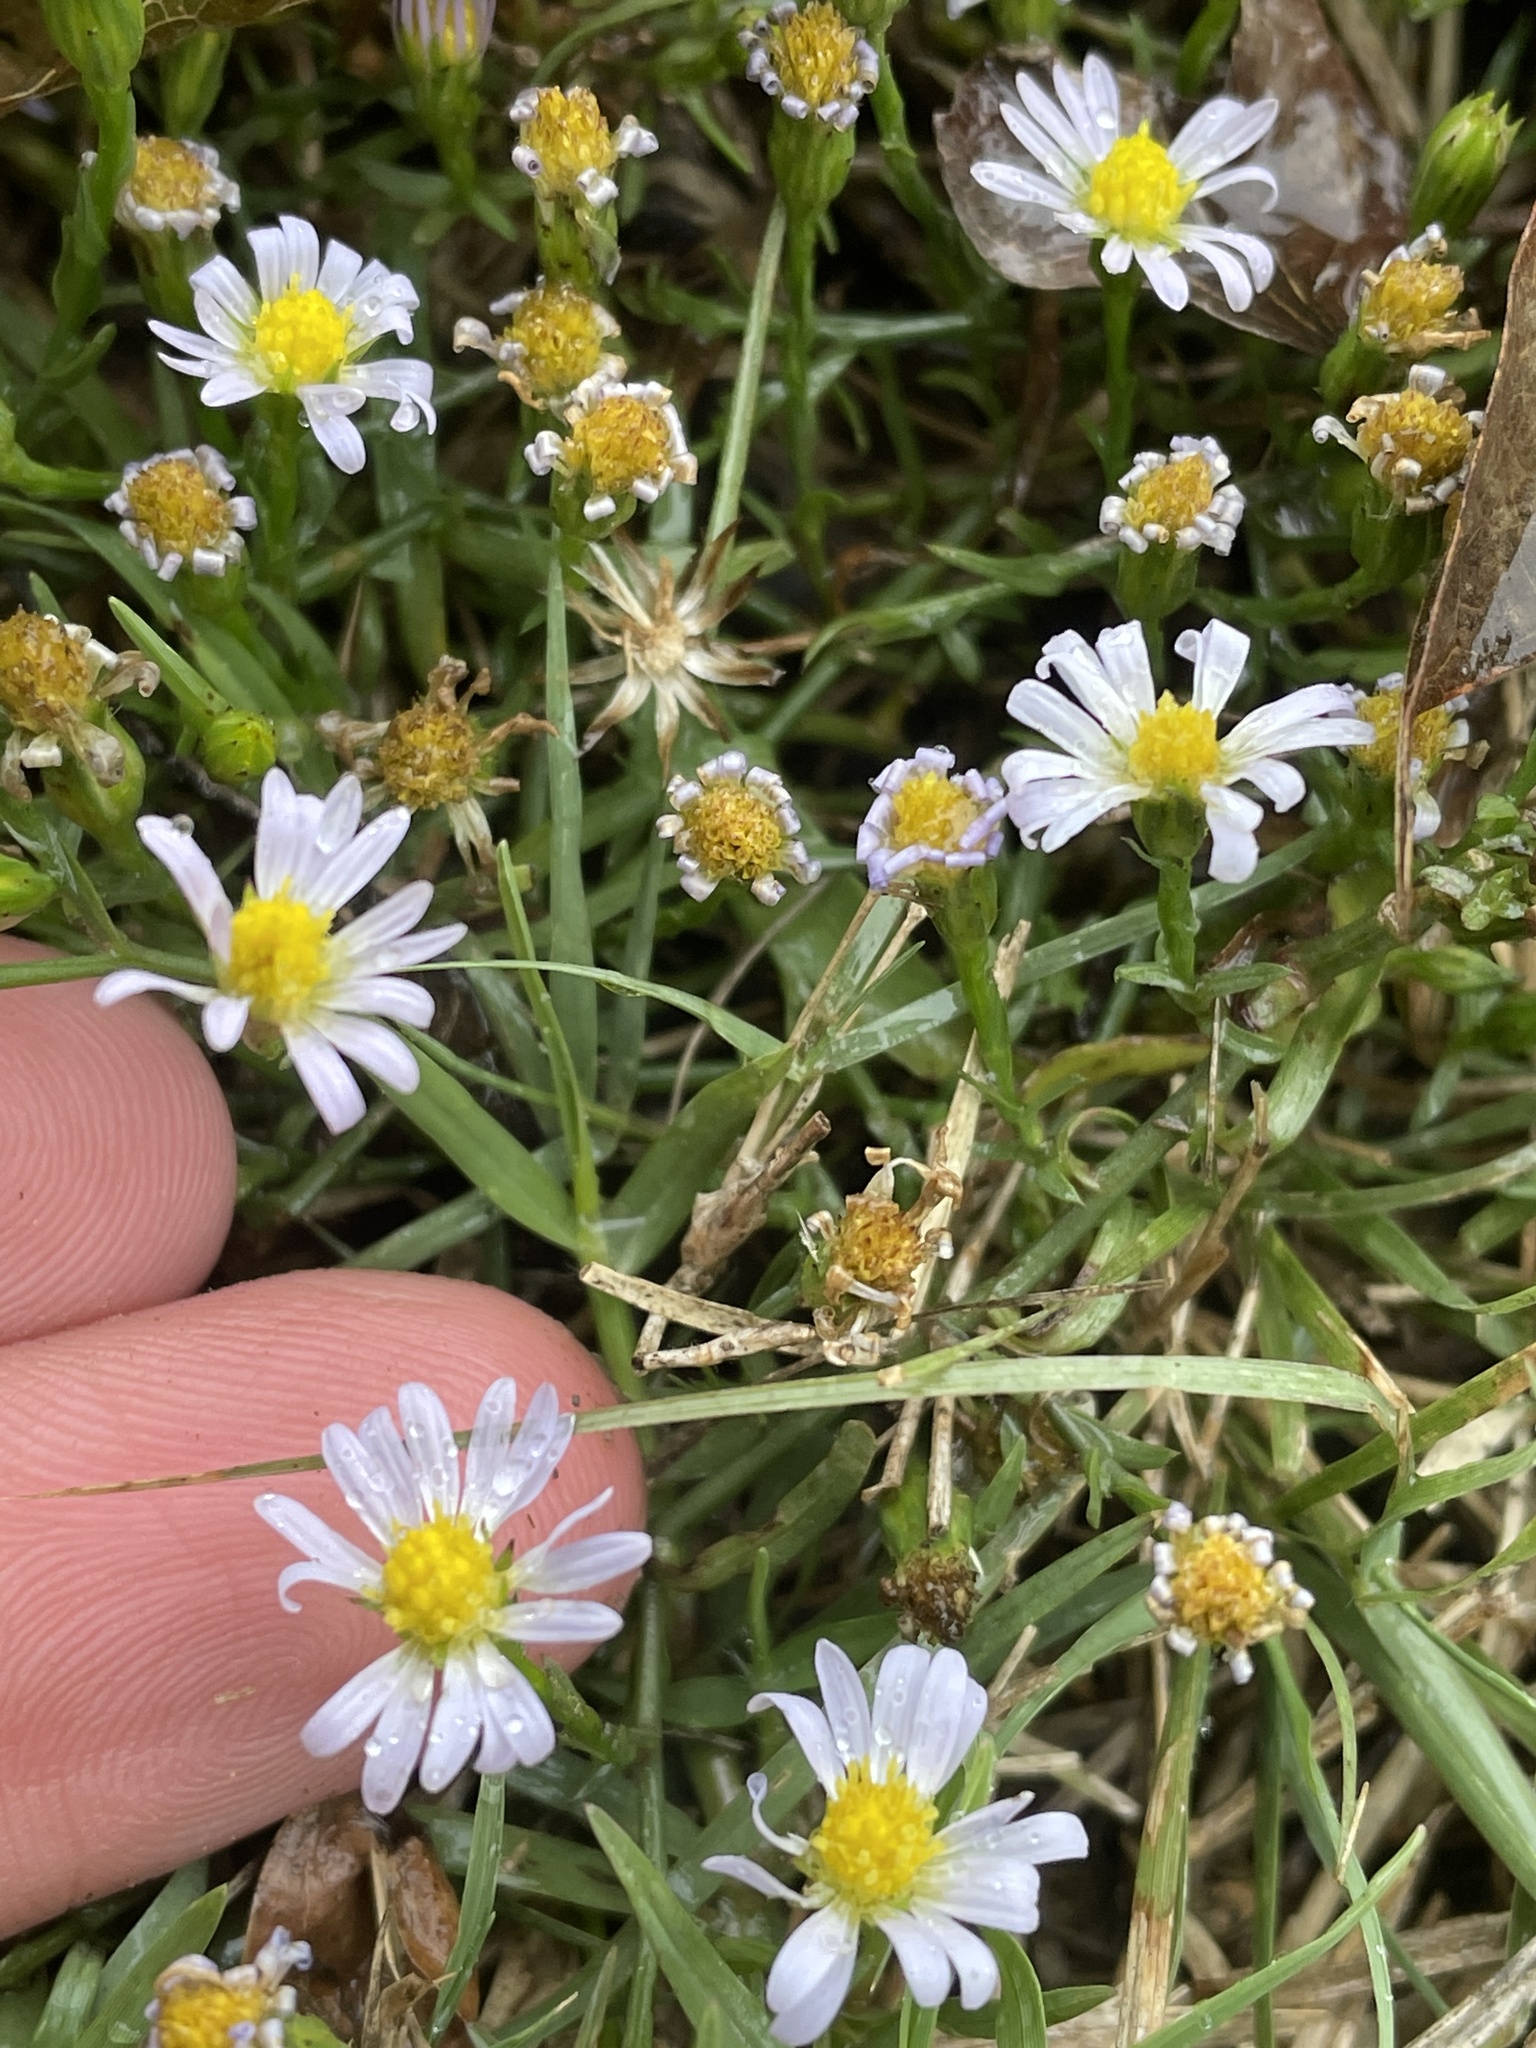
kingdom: Plantae
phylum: Tracheophyta
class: Magnoliopsida
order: Asterales
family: Asteraceae
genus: Symphyotrichum
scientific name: Symphyotrichum divaricatum
